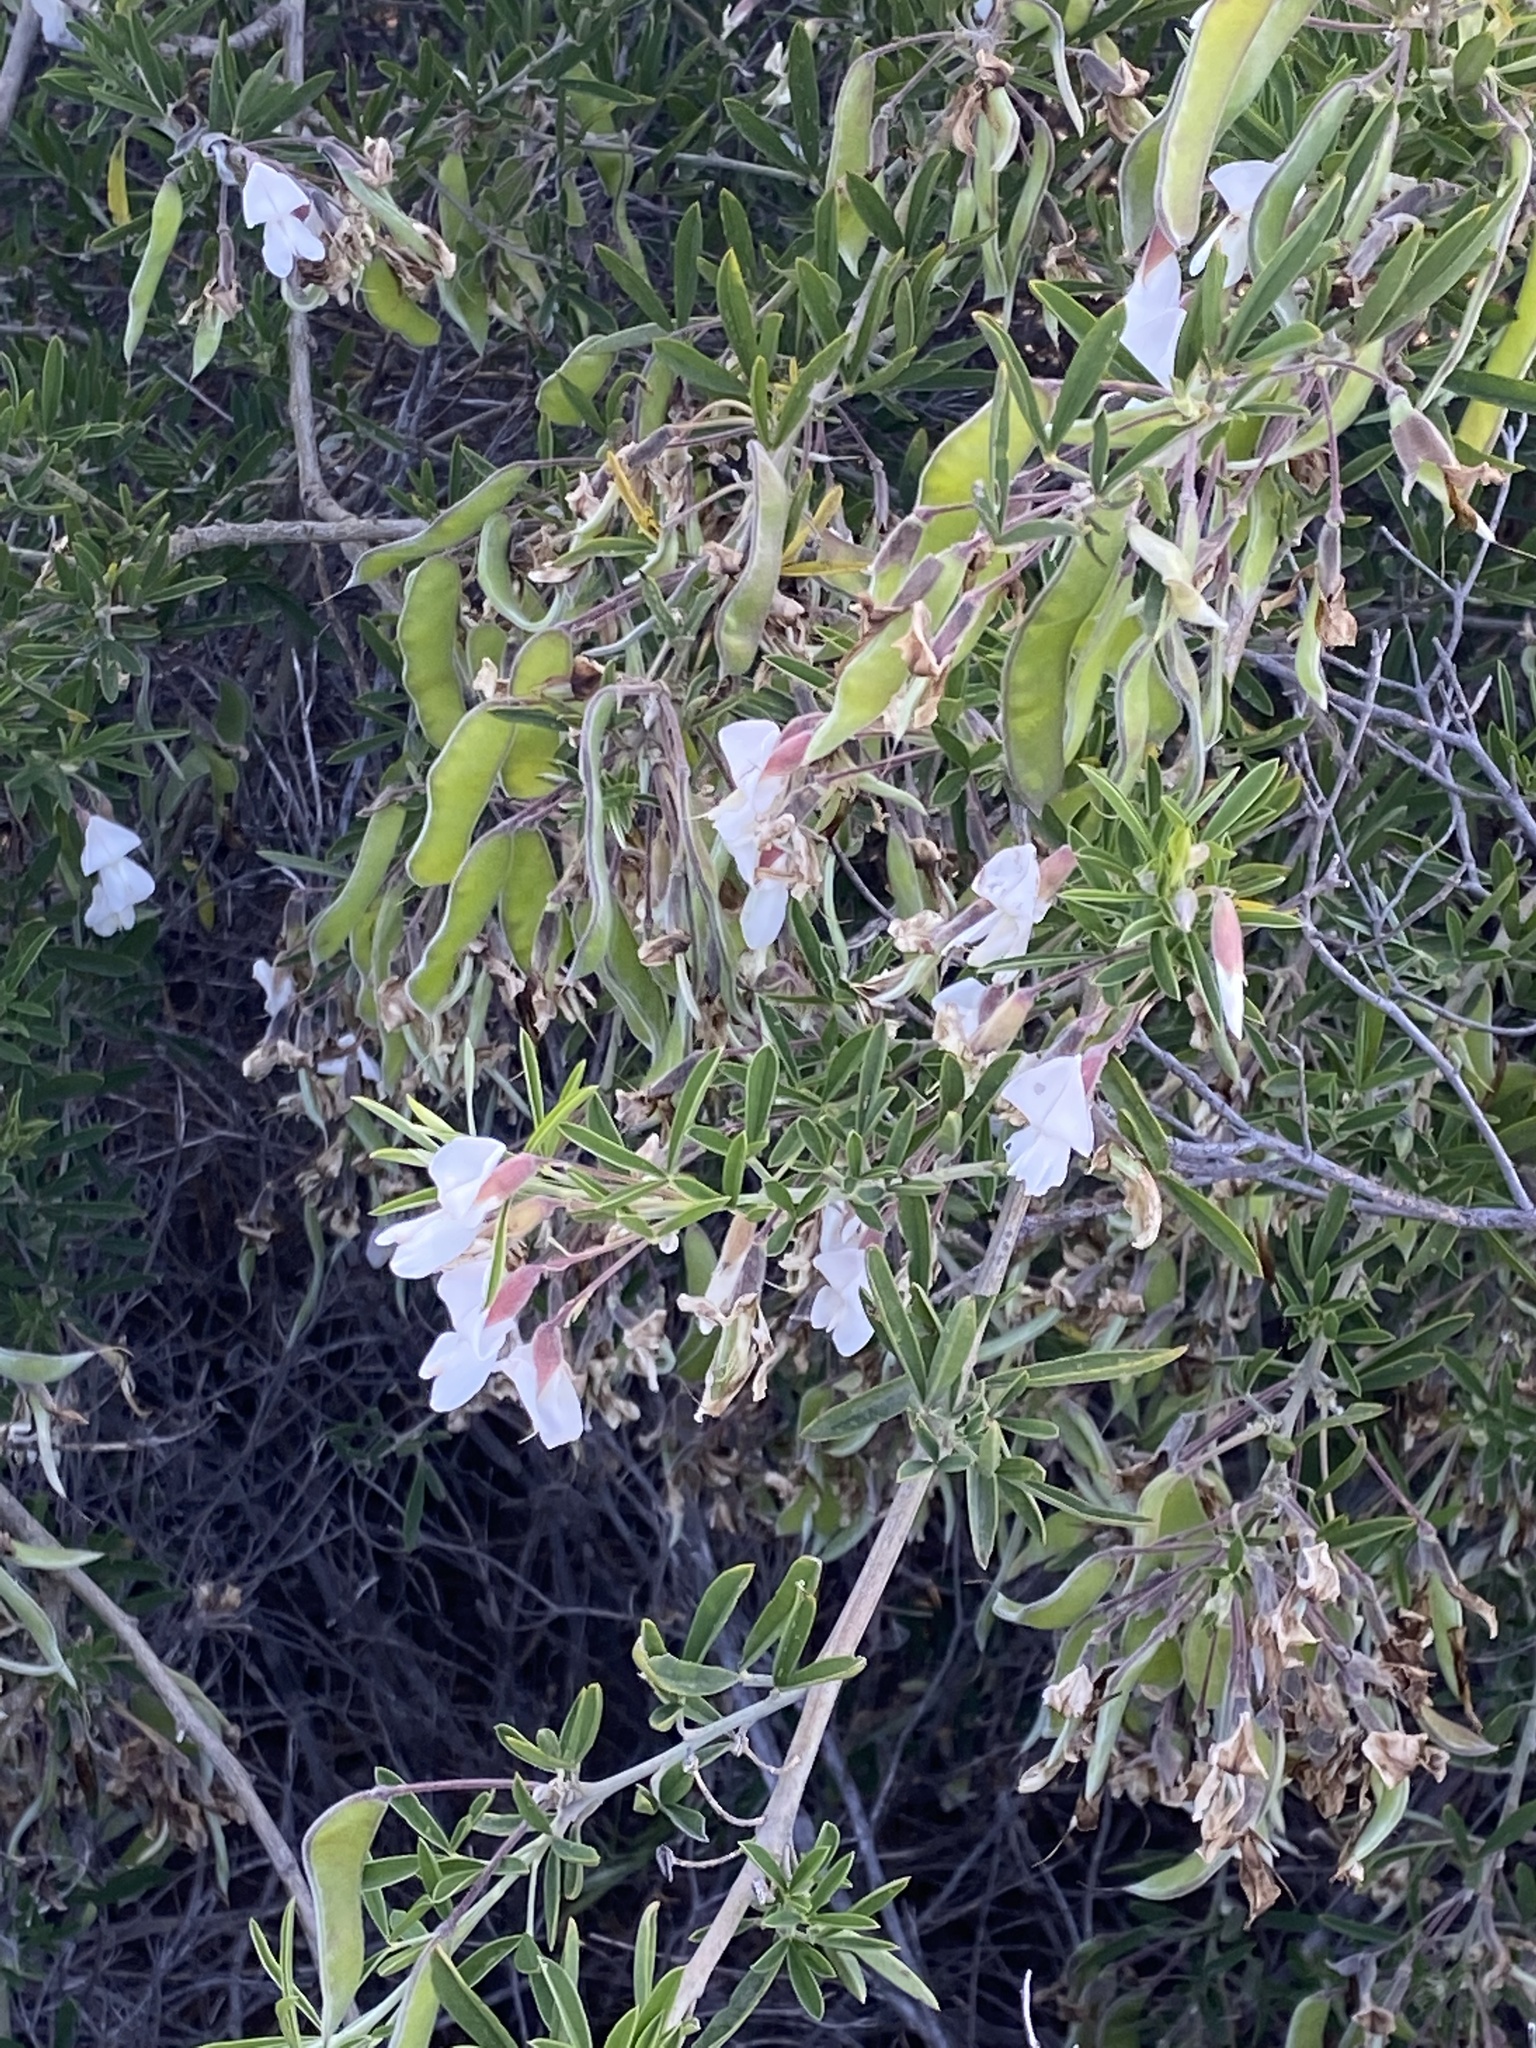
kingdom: Plantae
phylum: Tracheophyta
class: Magnoliopsida
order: Fabales
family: Fabaceae
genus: Chamaecytisus
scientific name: Chamaecytisus prolifer
